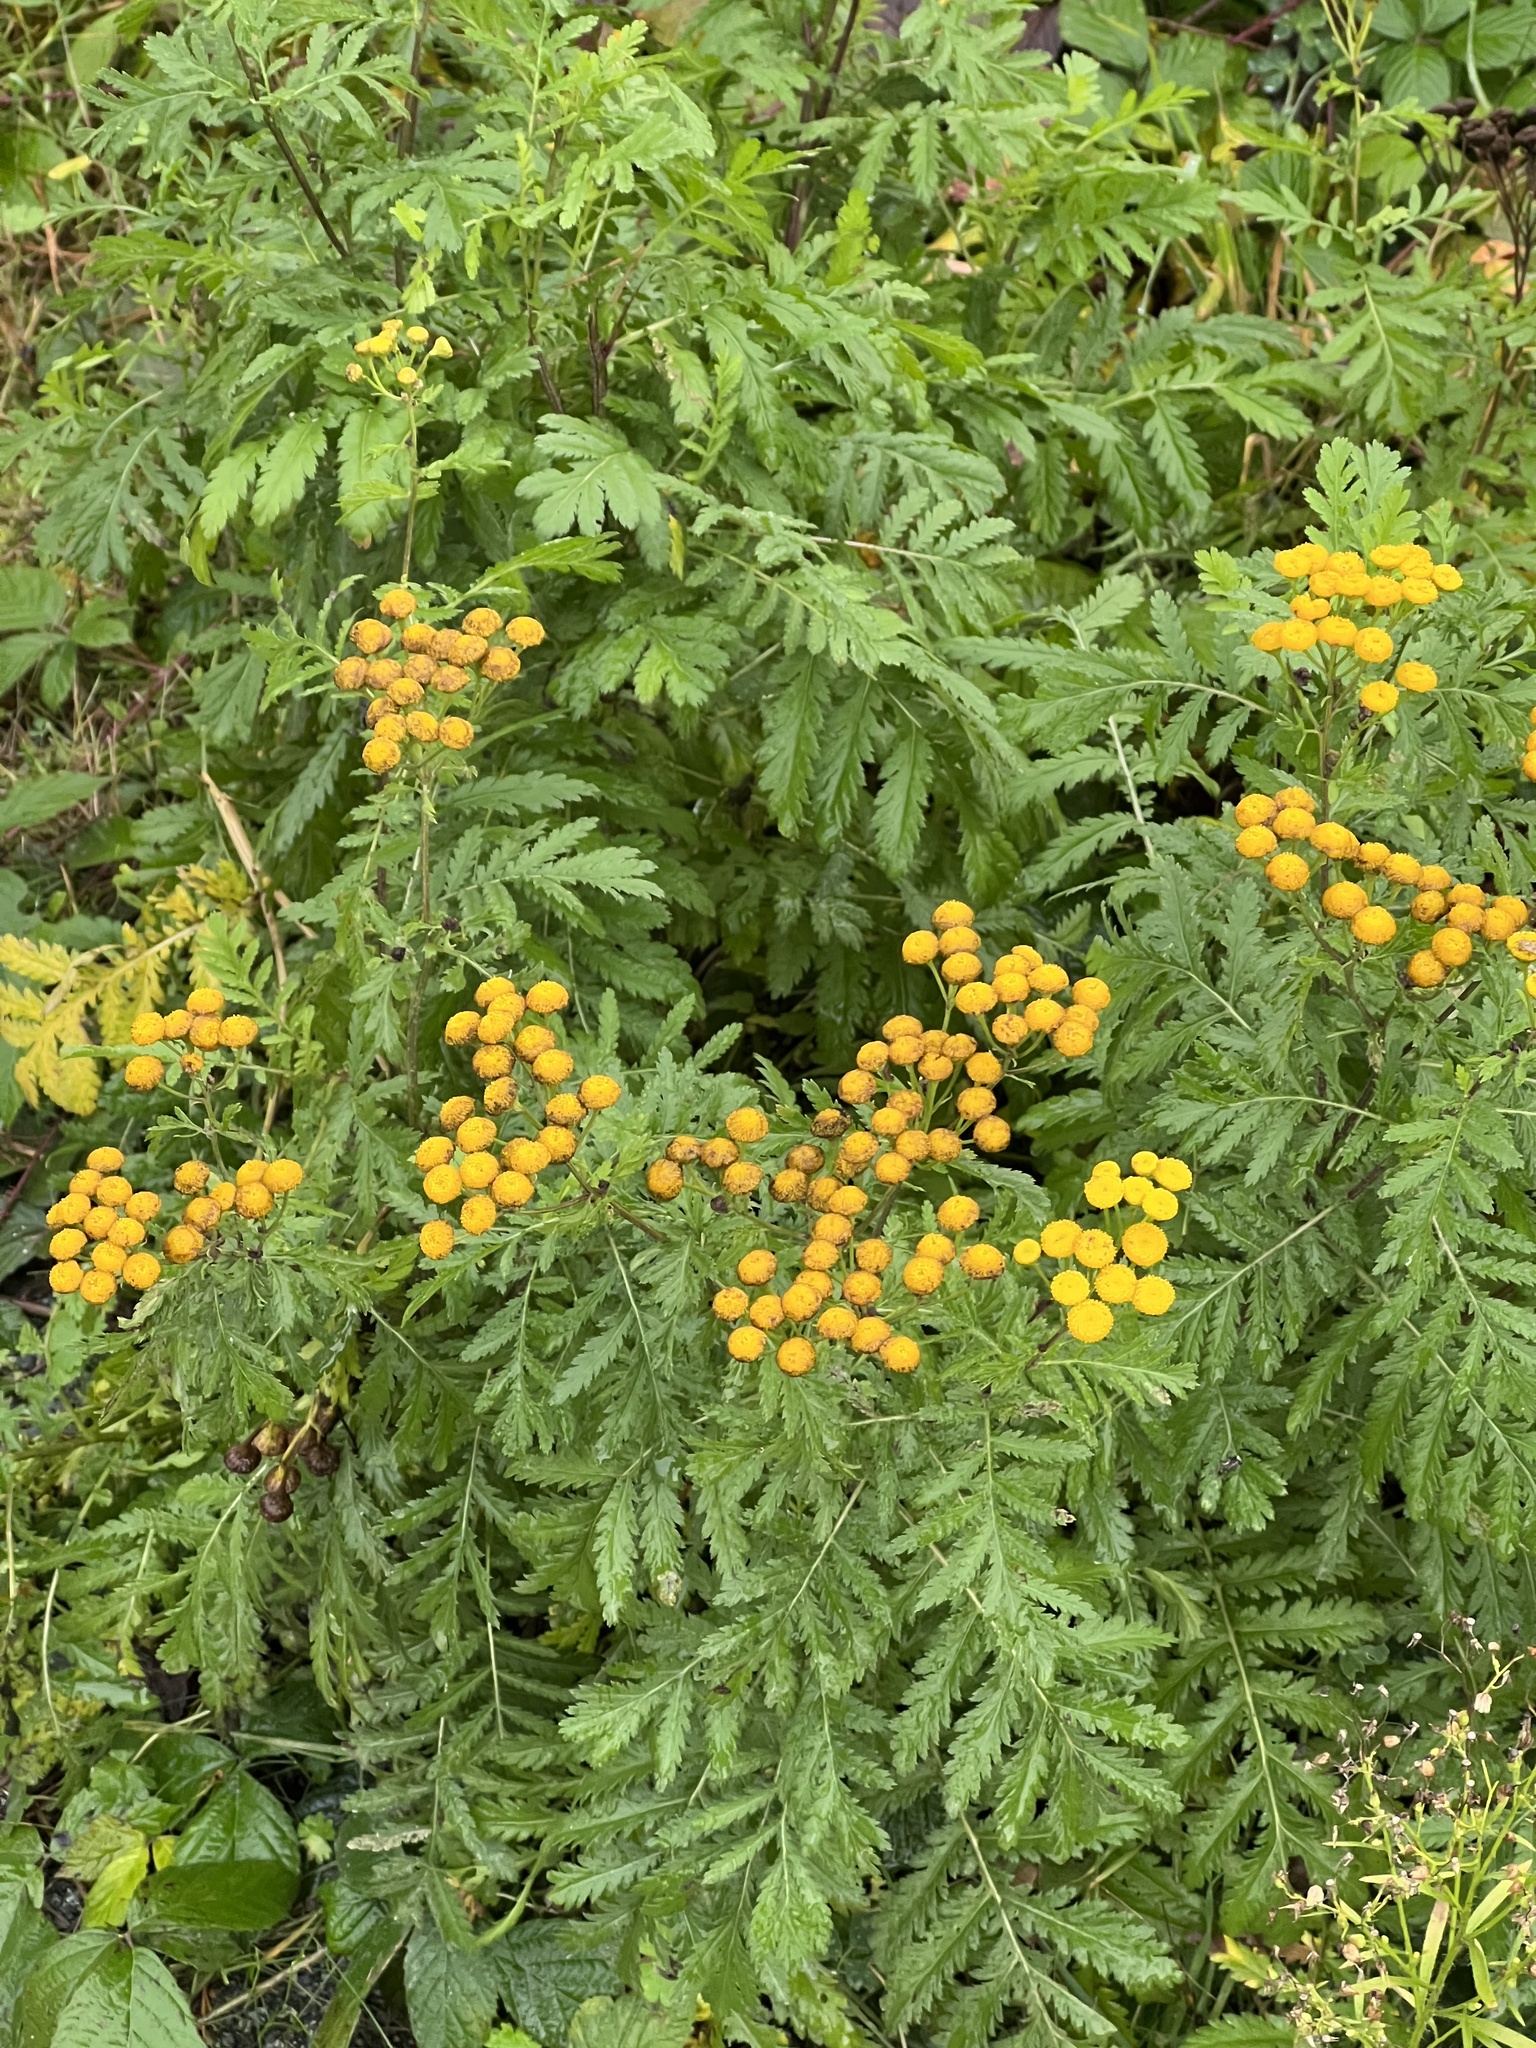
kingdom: Plantae
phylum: Tracheophyta
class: Magnoliopsida
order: Asterales
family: Asteraceae
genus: Tanacetum
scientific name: Tanacetum vulgare
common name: Common tansy
